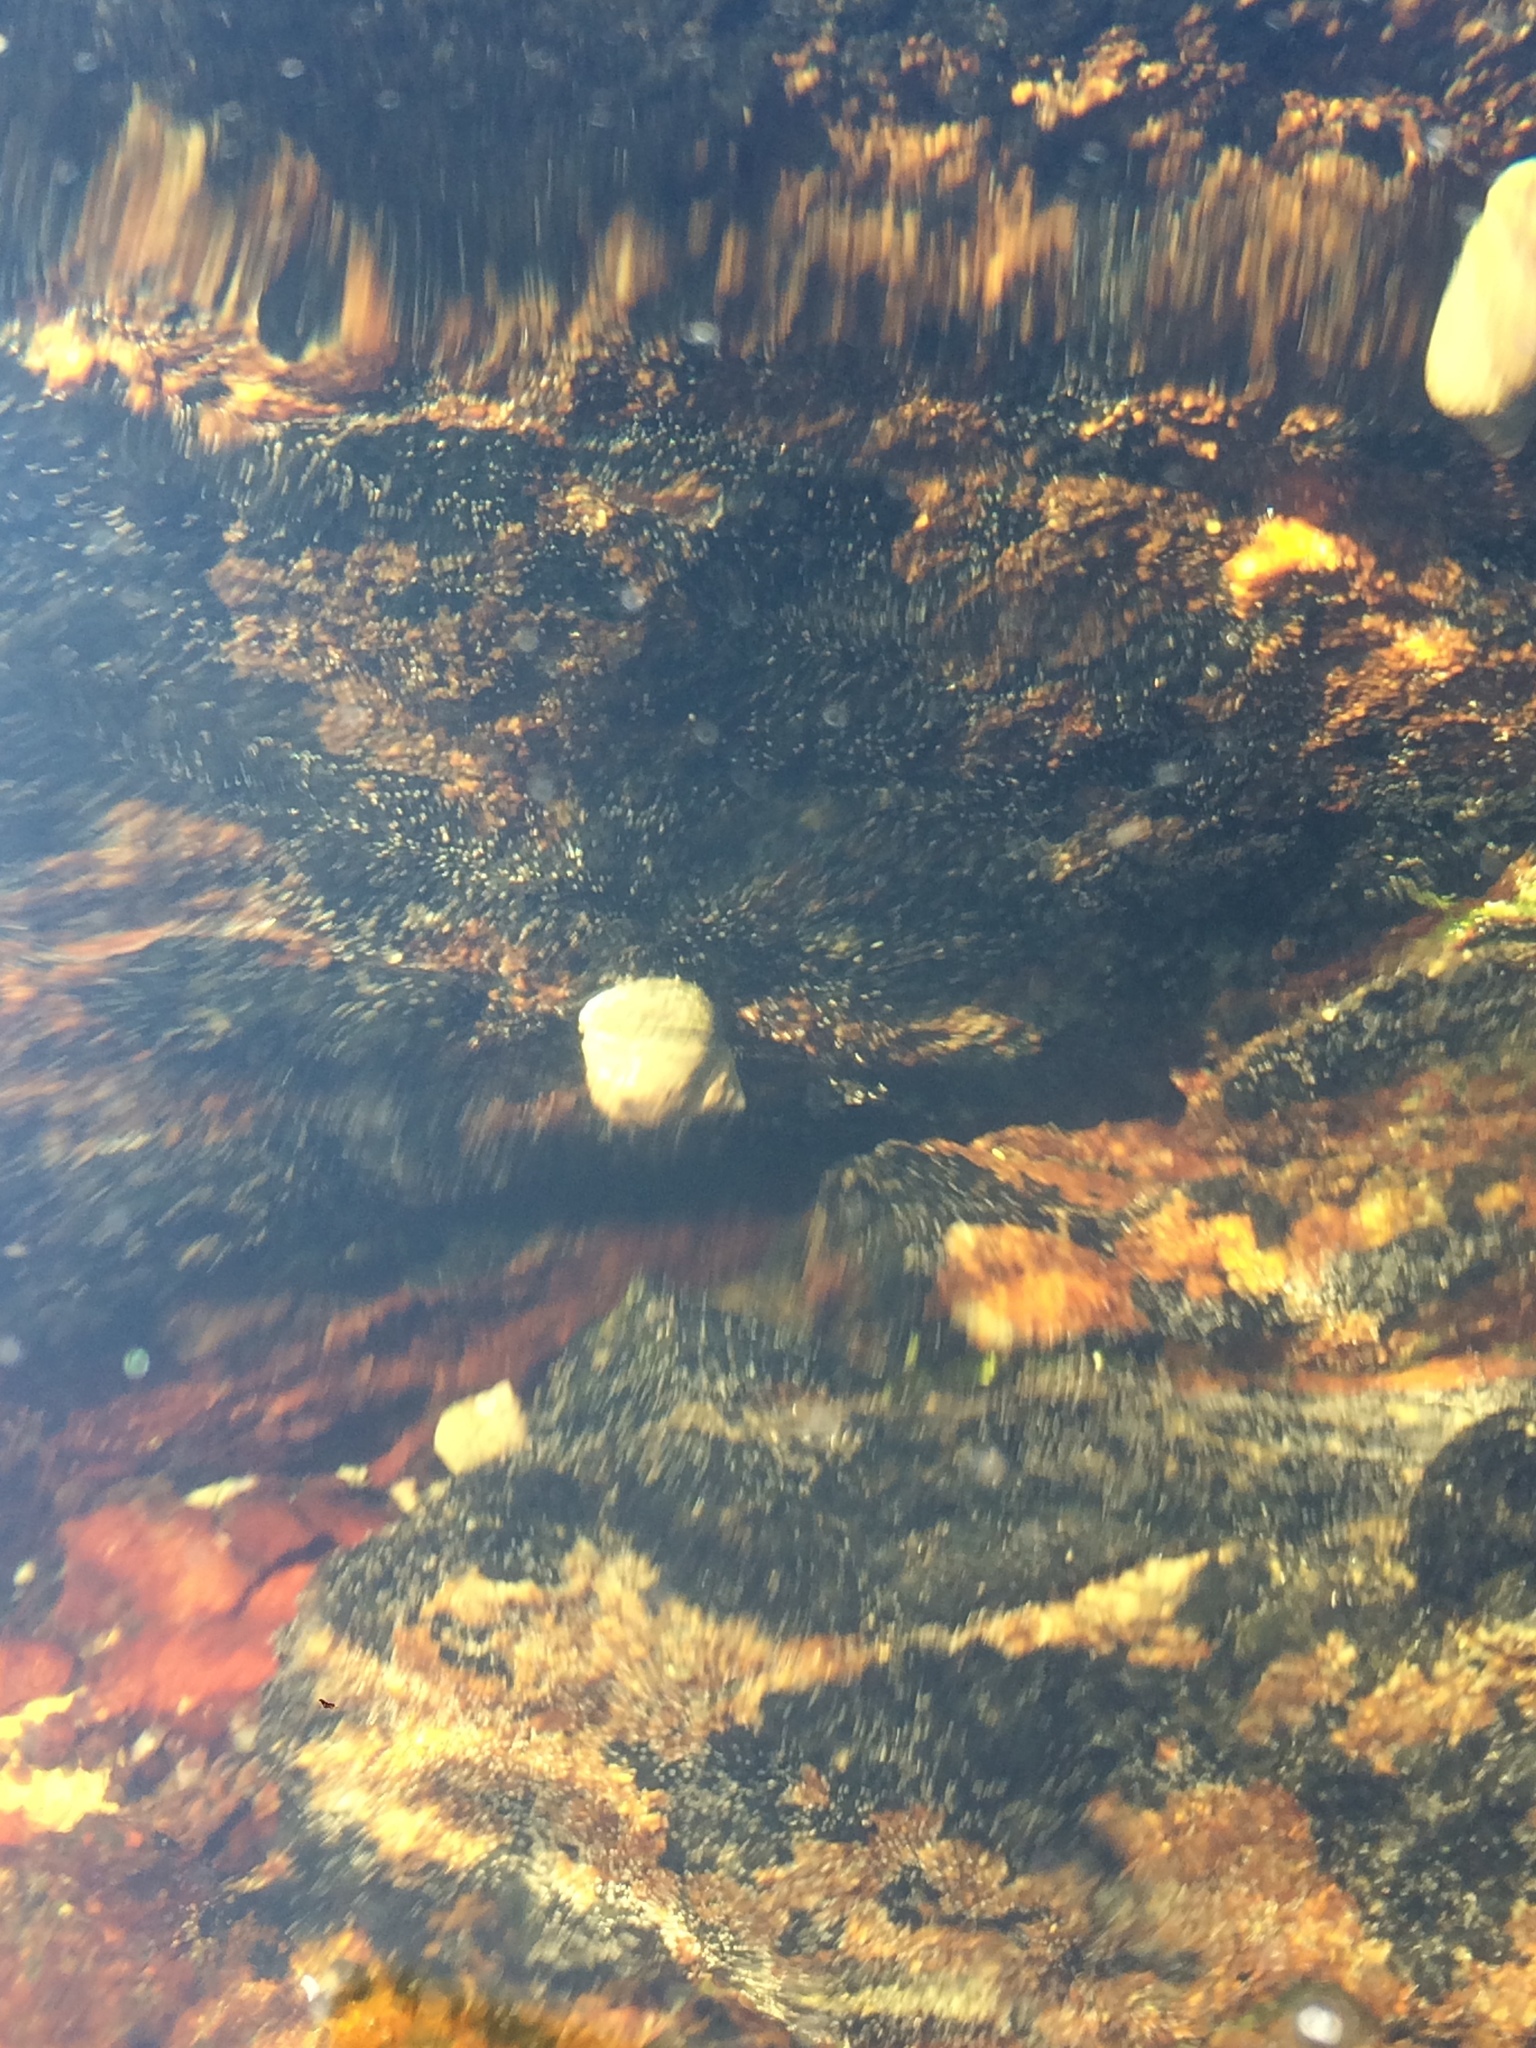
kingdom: Animalia
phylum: Mollusca
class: Gastropoda
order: Littorinimorpha
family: Littorinidae
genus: Littorina
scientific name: Littorina littorea
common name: Common periwinkle
